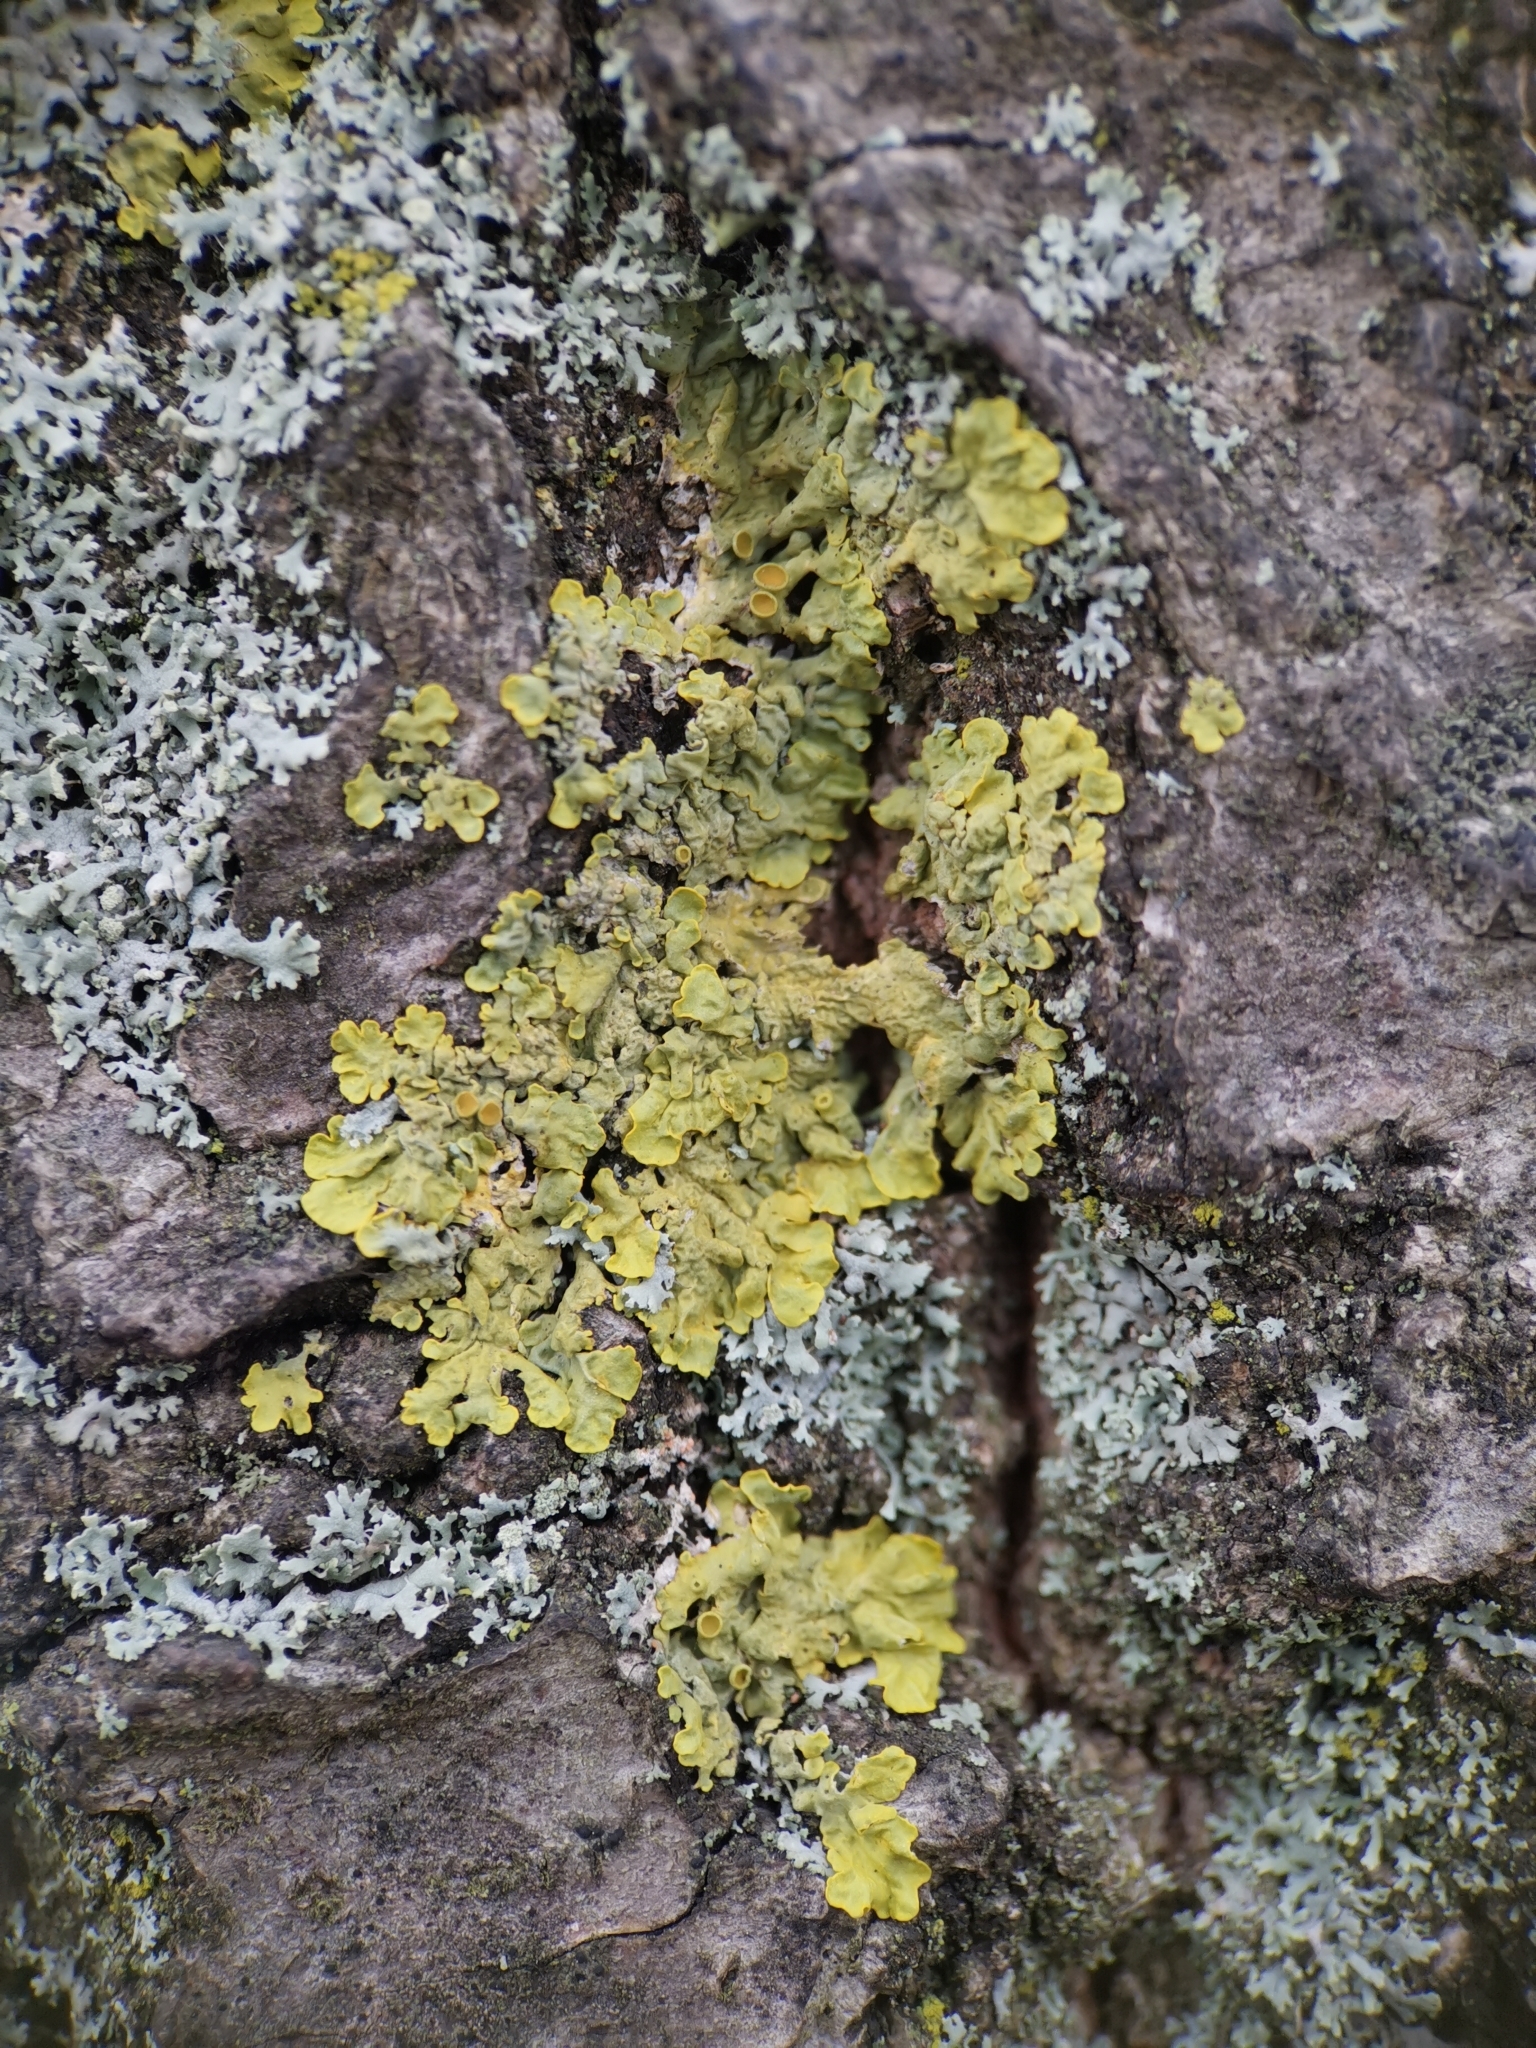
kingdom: Fungi
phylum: Ascomycota
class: Lecanoromycetes
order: Teloschistales
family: Teloschistaceae
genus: Xanthoria
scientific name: Xanthoria parietina
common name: Common orange lichen
